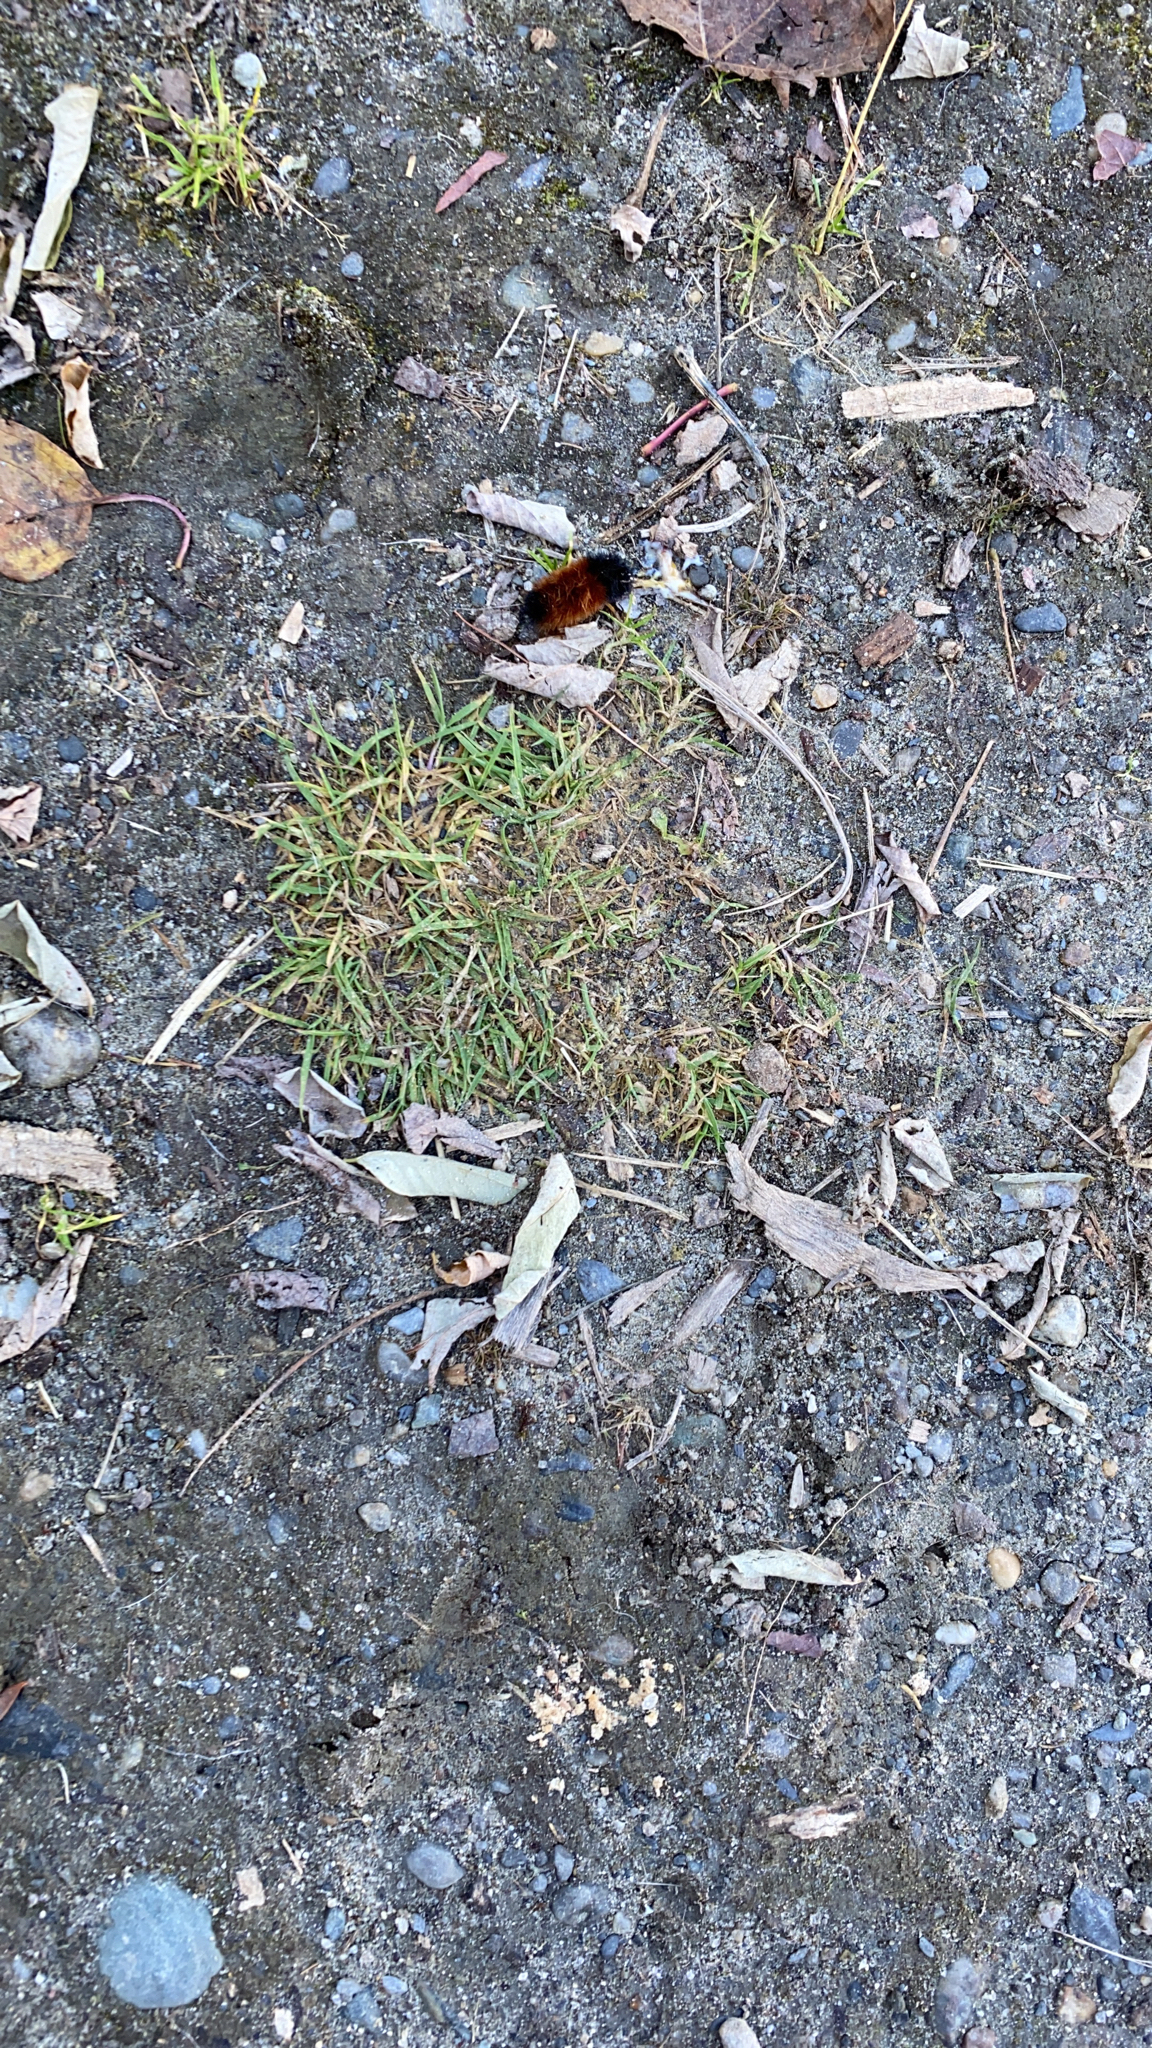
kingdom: Animalia
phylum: Arthropoda
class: Insecta
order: Lepidoptera
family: Erebidae
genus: Pyrrharctia
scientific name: Pyrrharctia isabella
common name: Isabella tiger moth
